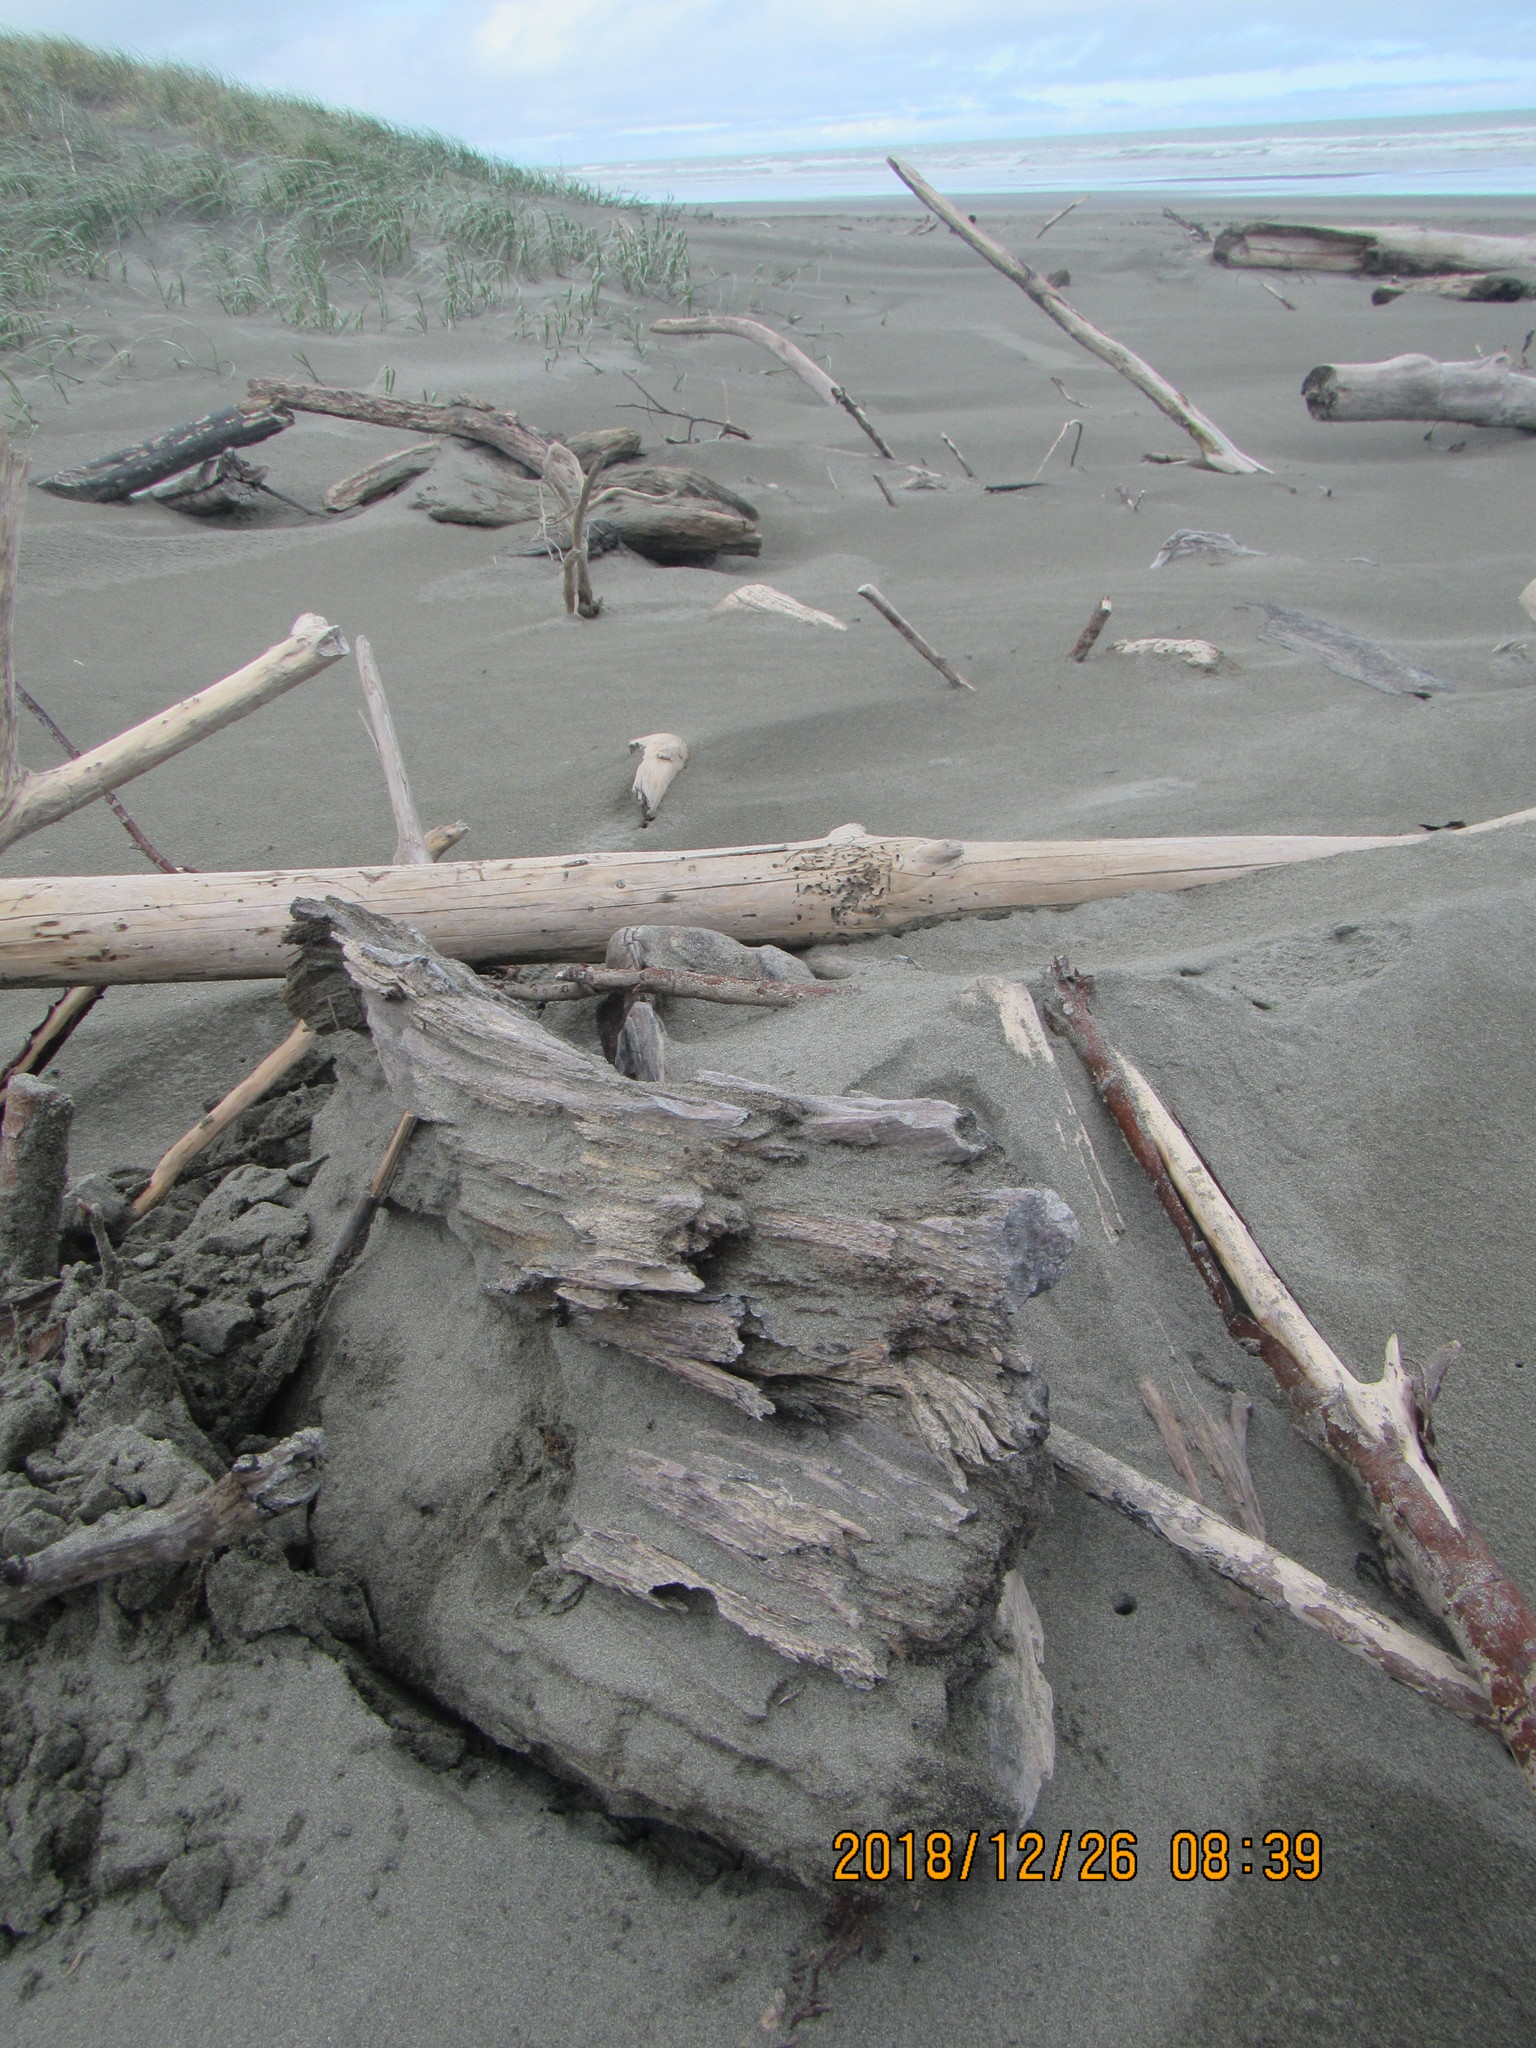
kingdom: Animalia
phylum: Arthropoda
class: Insecta
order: Dermaptera
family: Anisolabididae
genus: Anisolabis
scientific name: Anisolabis littorea
